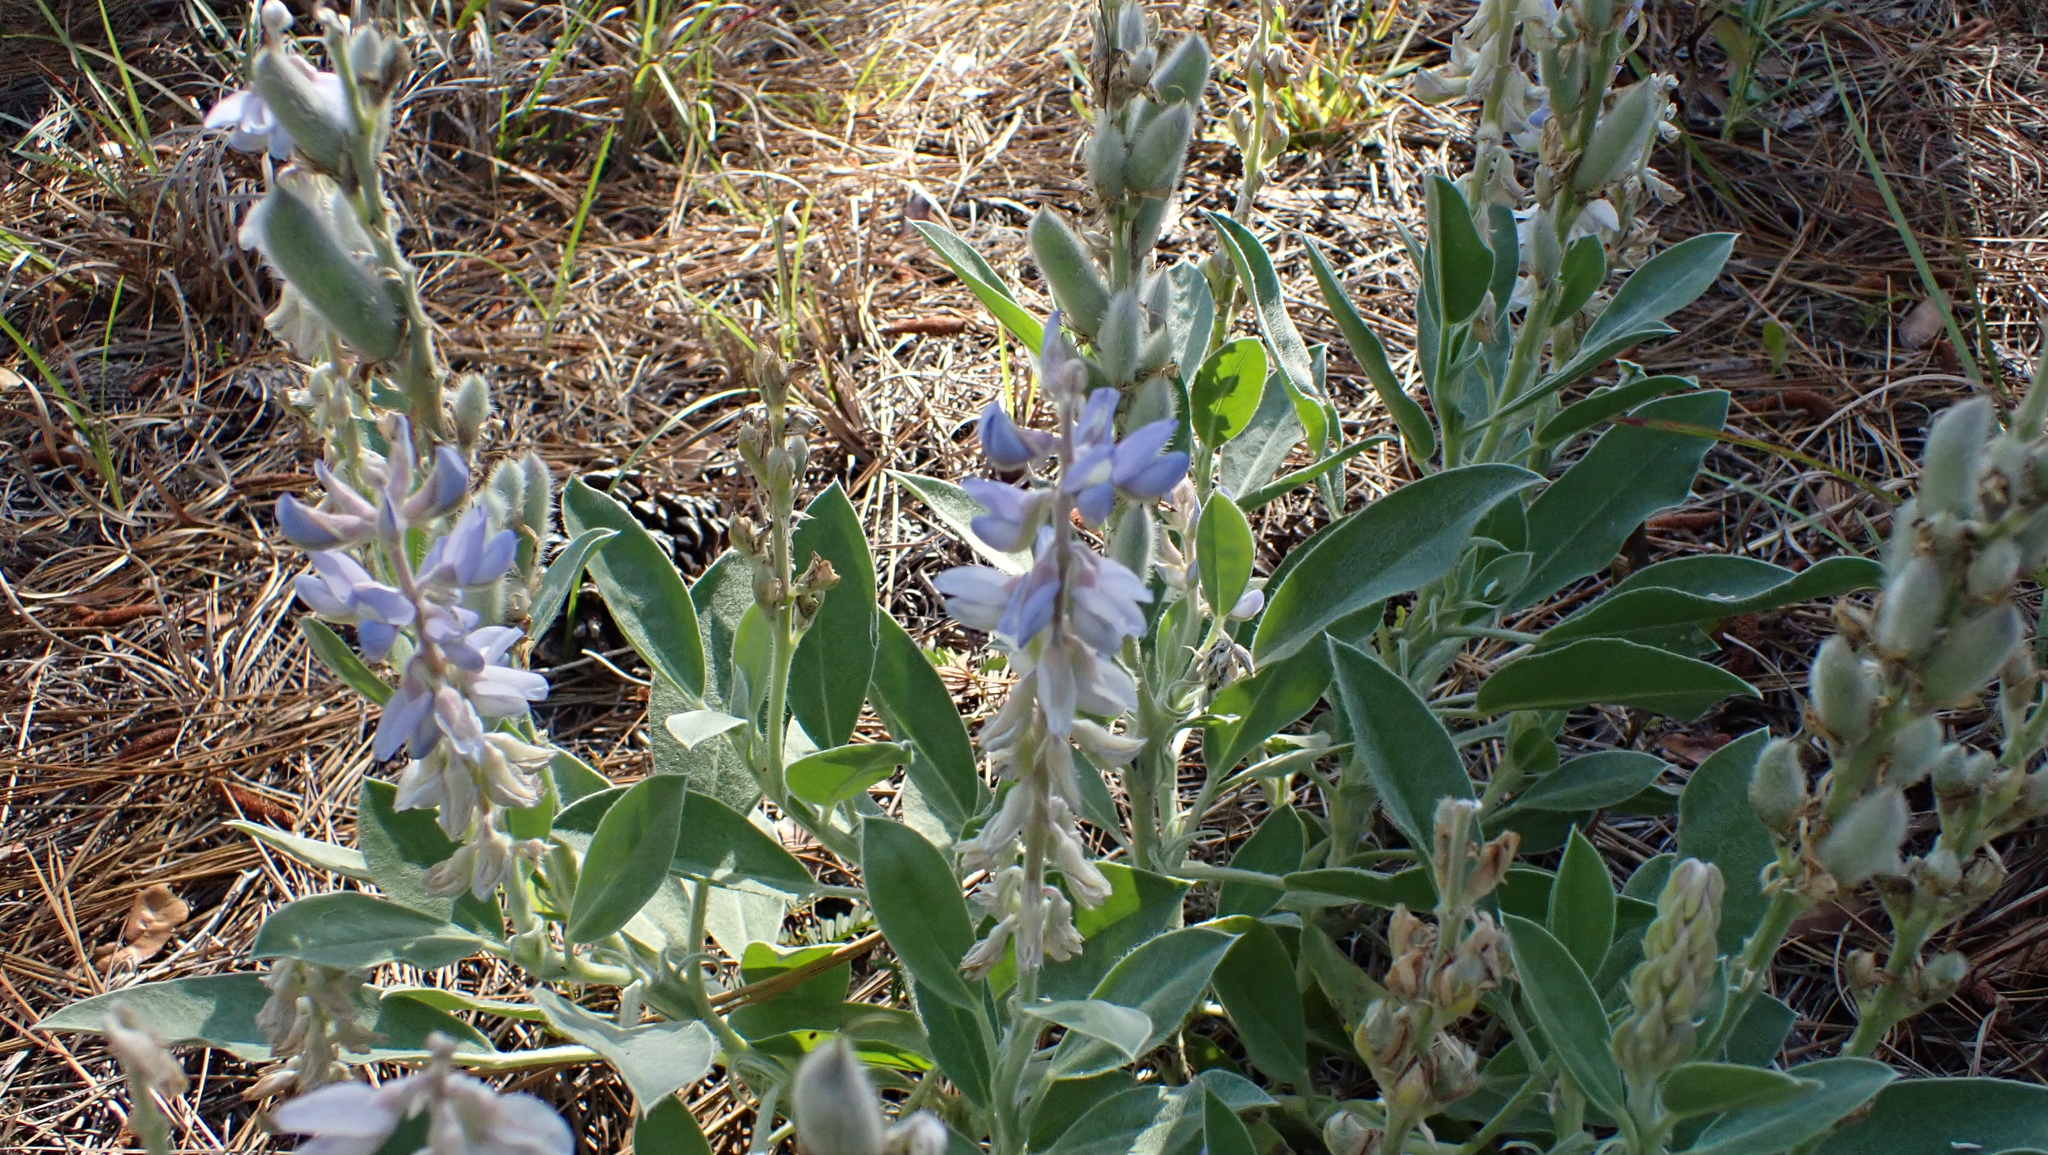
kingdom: Plantae
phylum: Tracheophyta
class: Magnoliopsida
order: Fabales
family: Fabaceae
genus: Lupinus
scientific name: Lupinus
